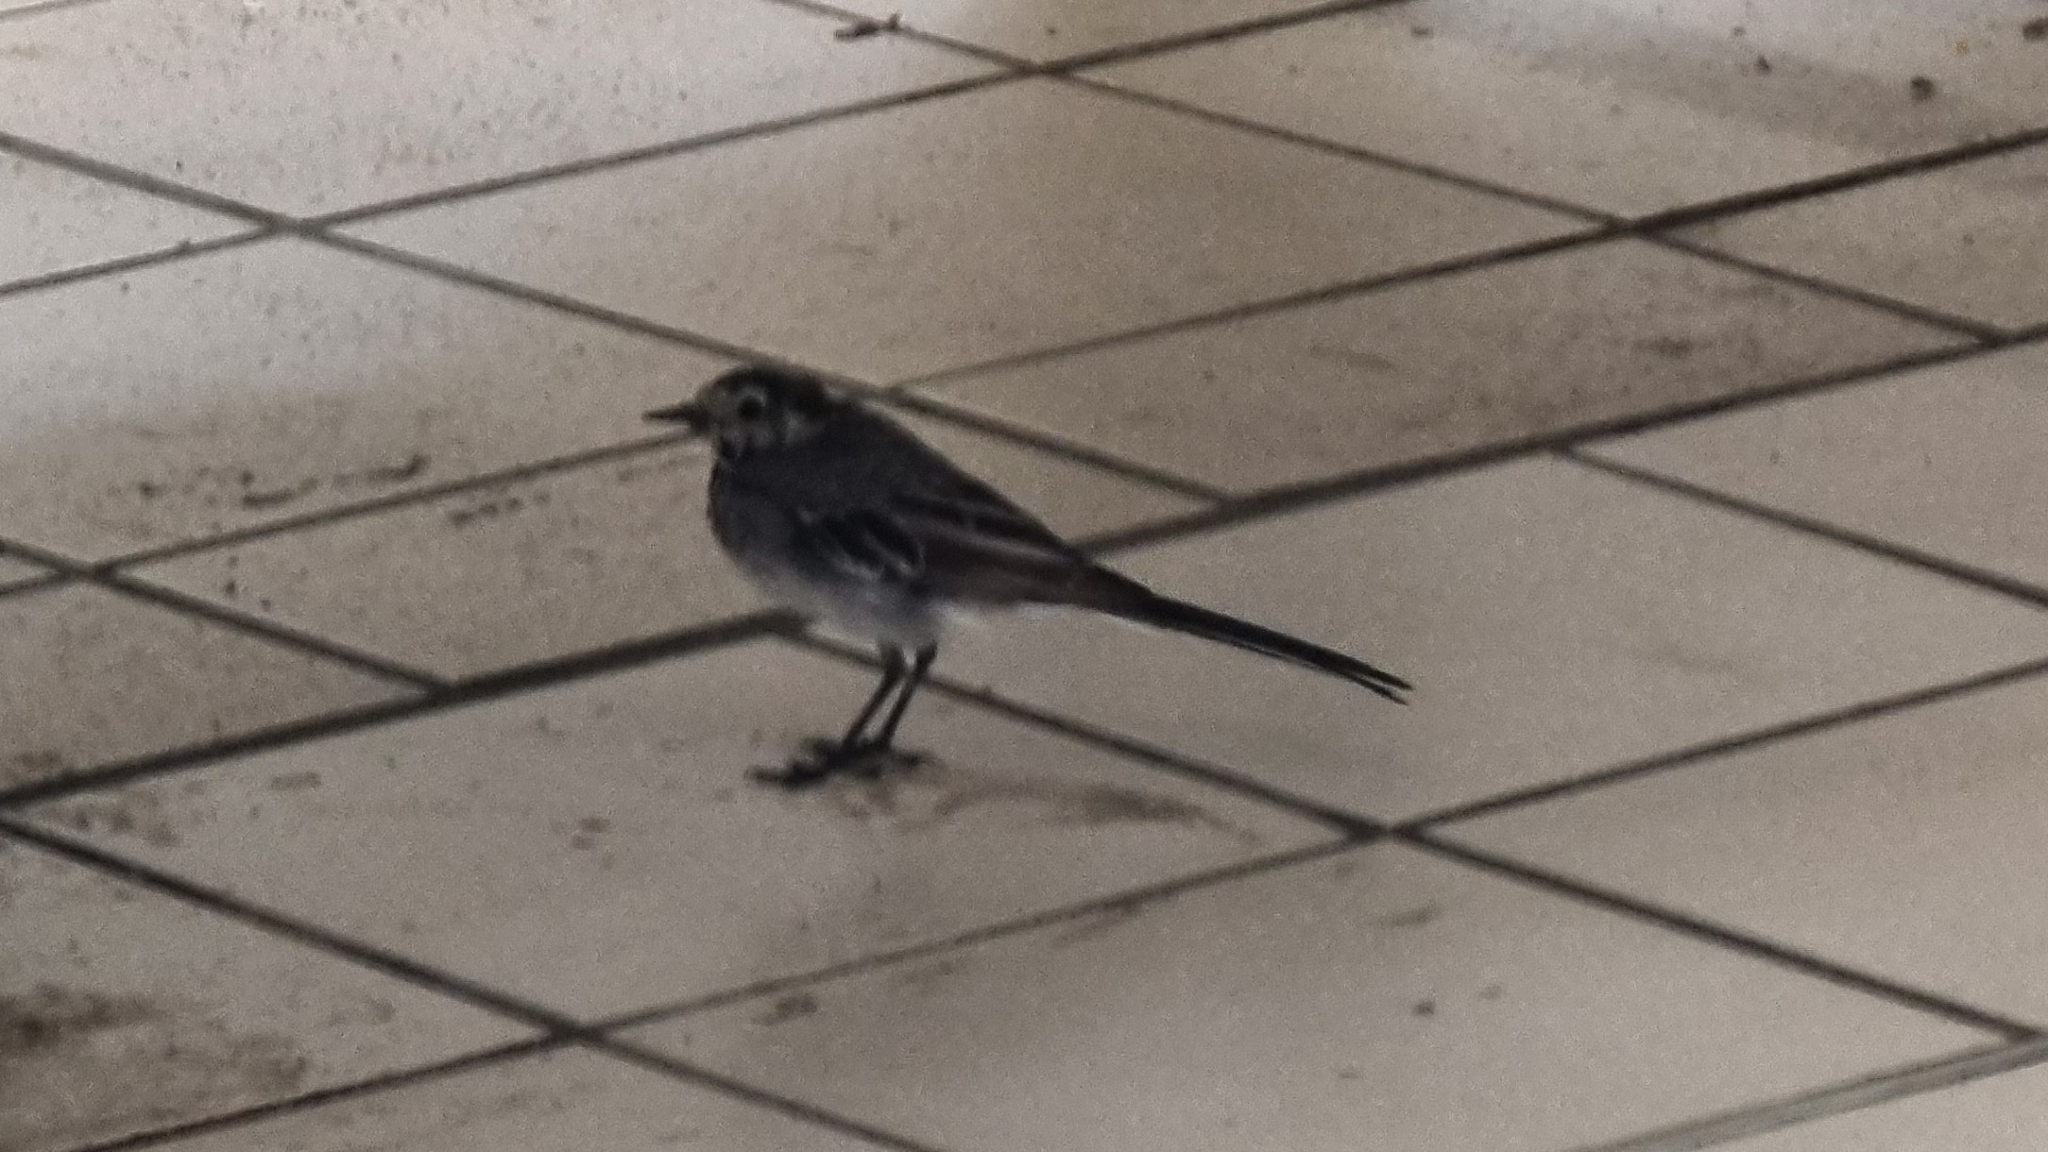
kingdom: Animalia
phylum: Chordata
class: Aves
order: Passeriformes
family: Motacillidae
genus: Motacilla
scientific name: Motacilla alba
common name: White wagtail
